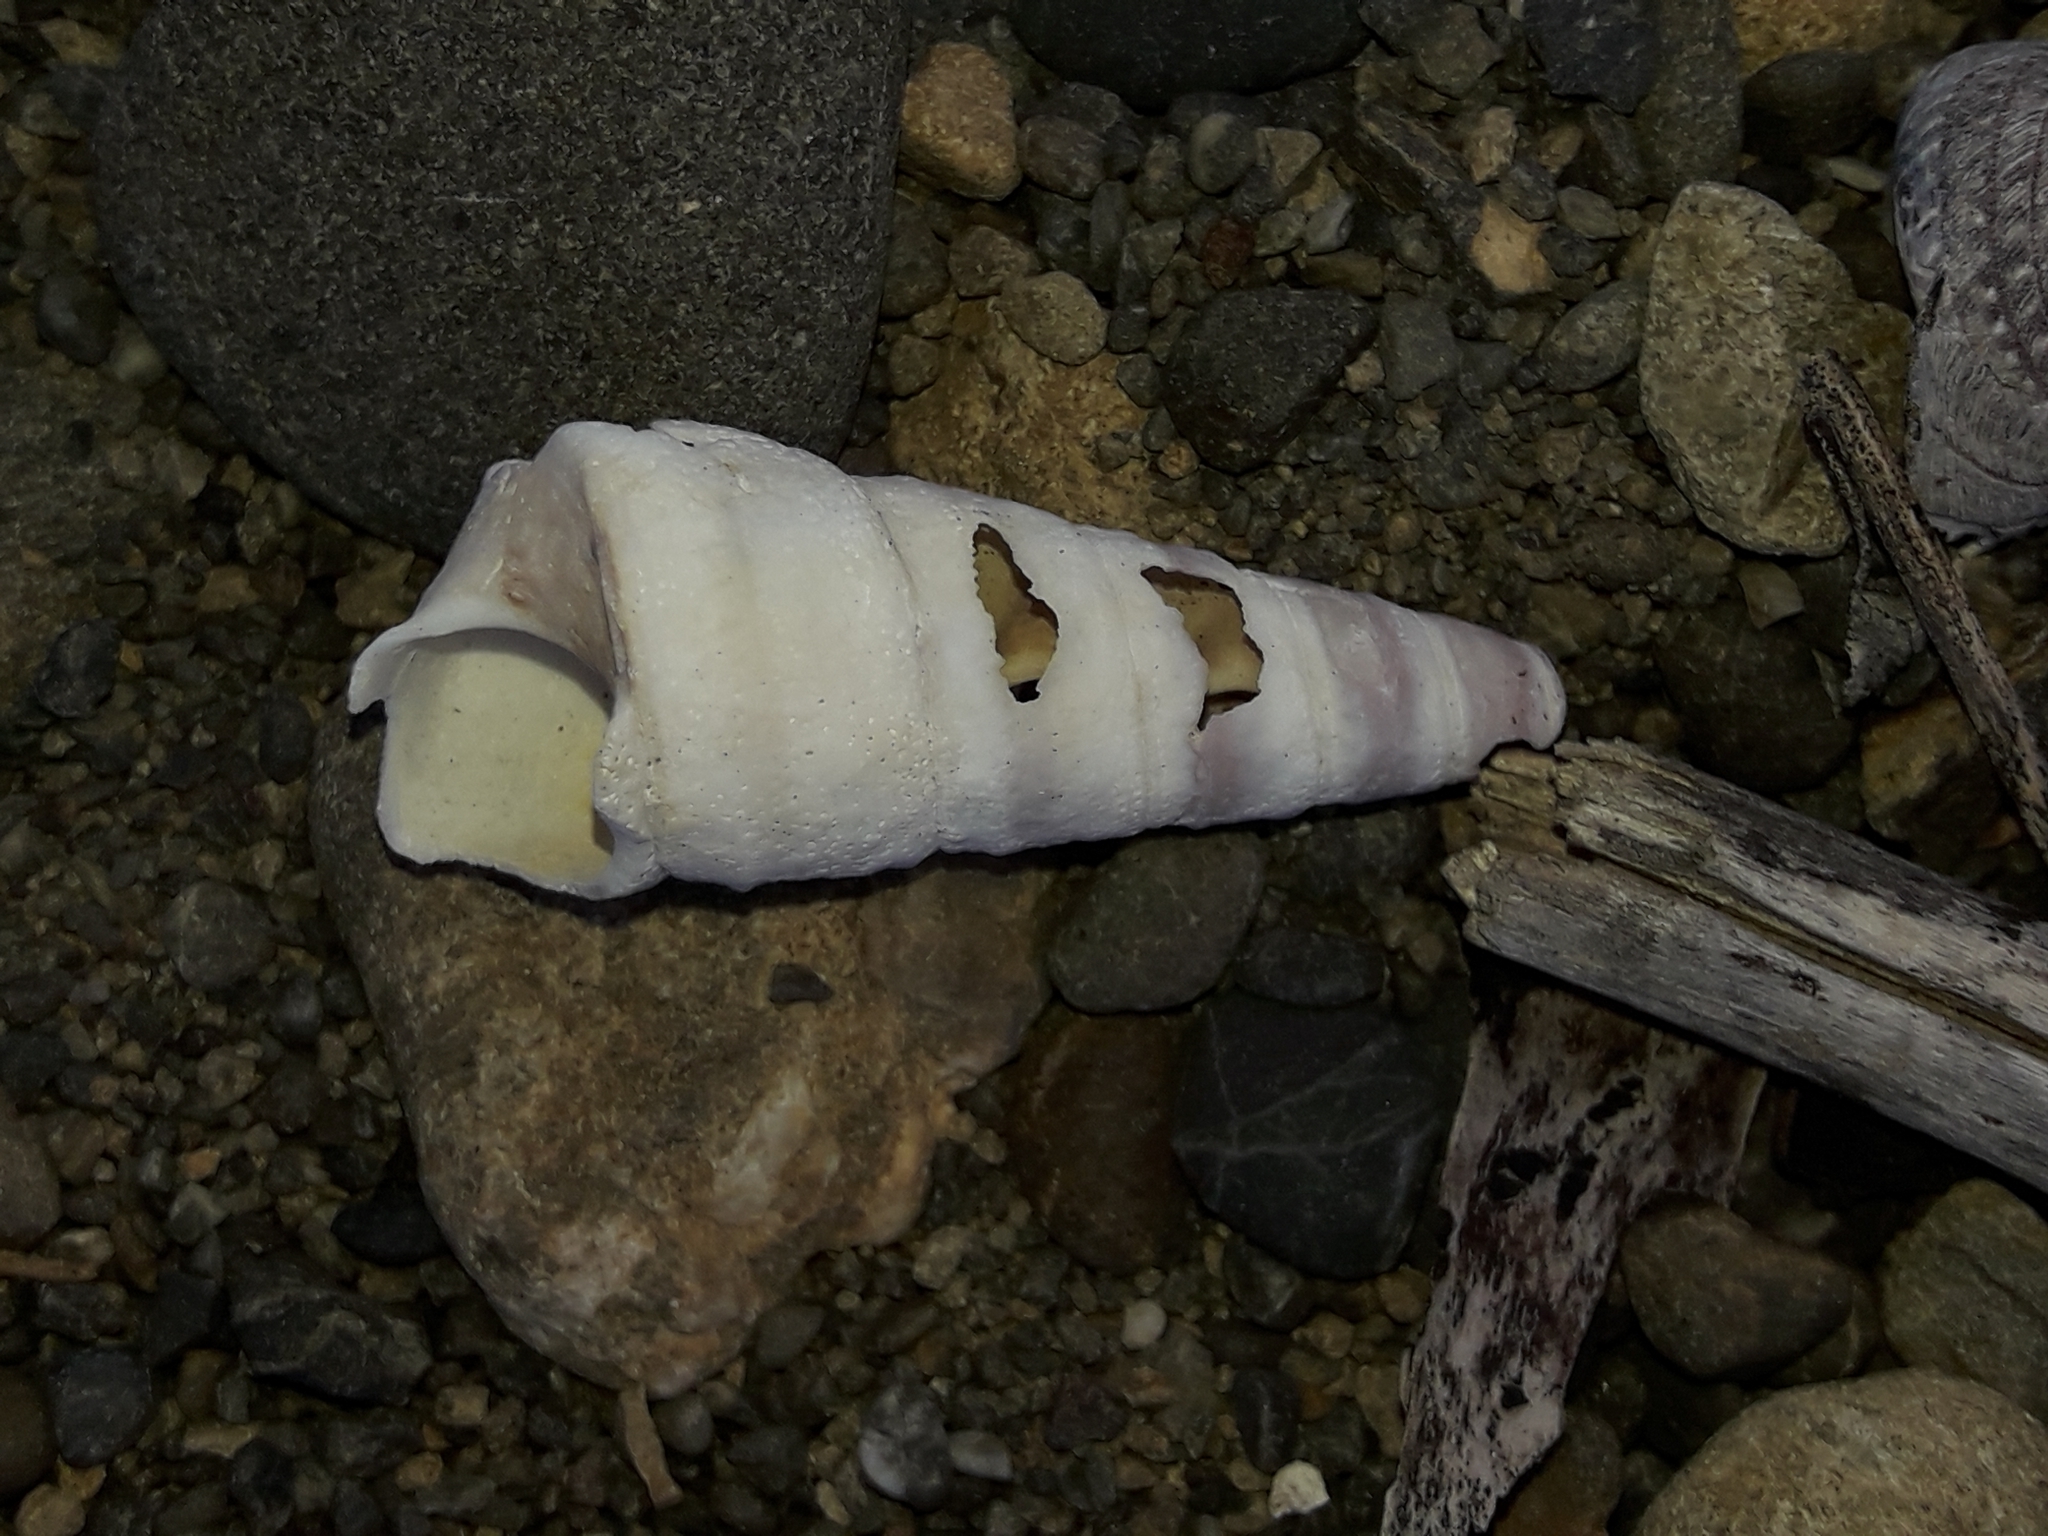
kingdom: Animalia
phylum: Mollusca
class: Gastropoda
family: Turritellidae
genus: Maoricolpus
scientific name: Maoricolpus roseus
